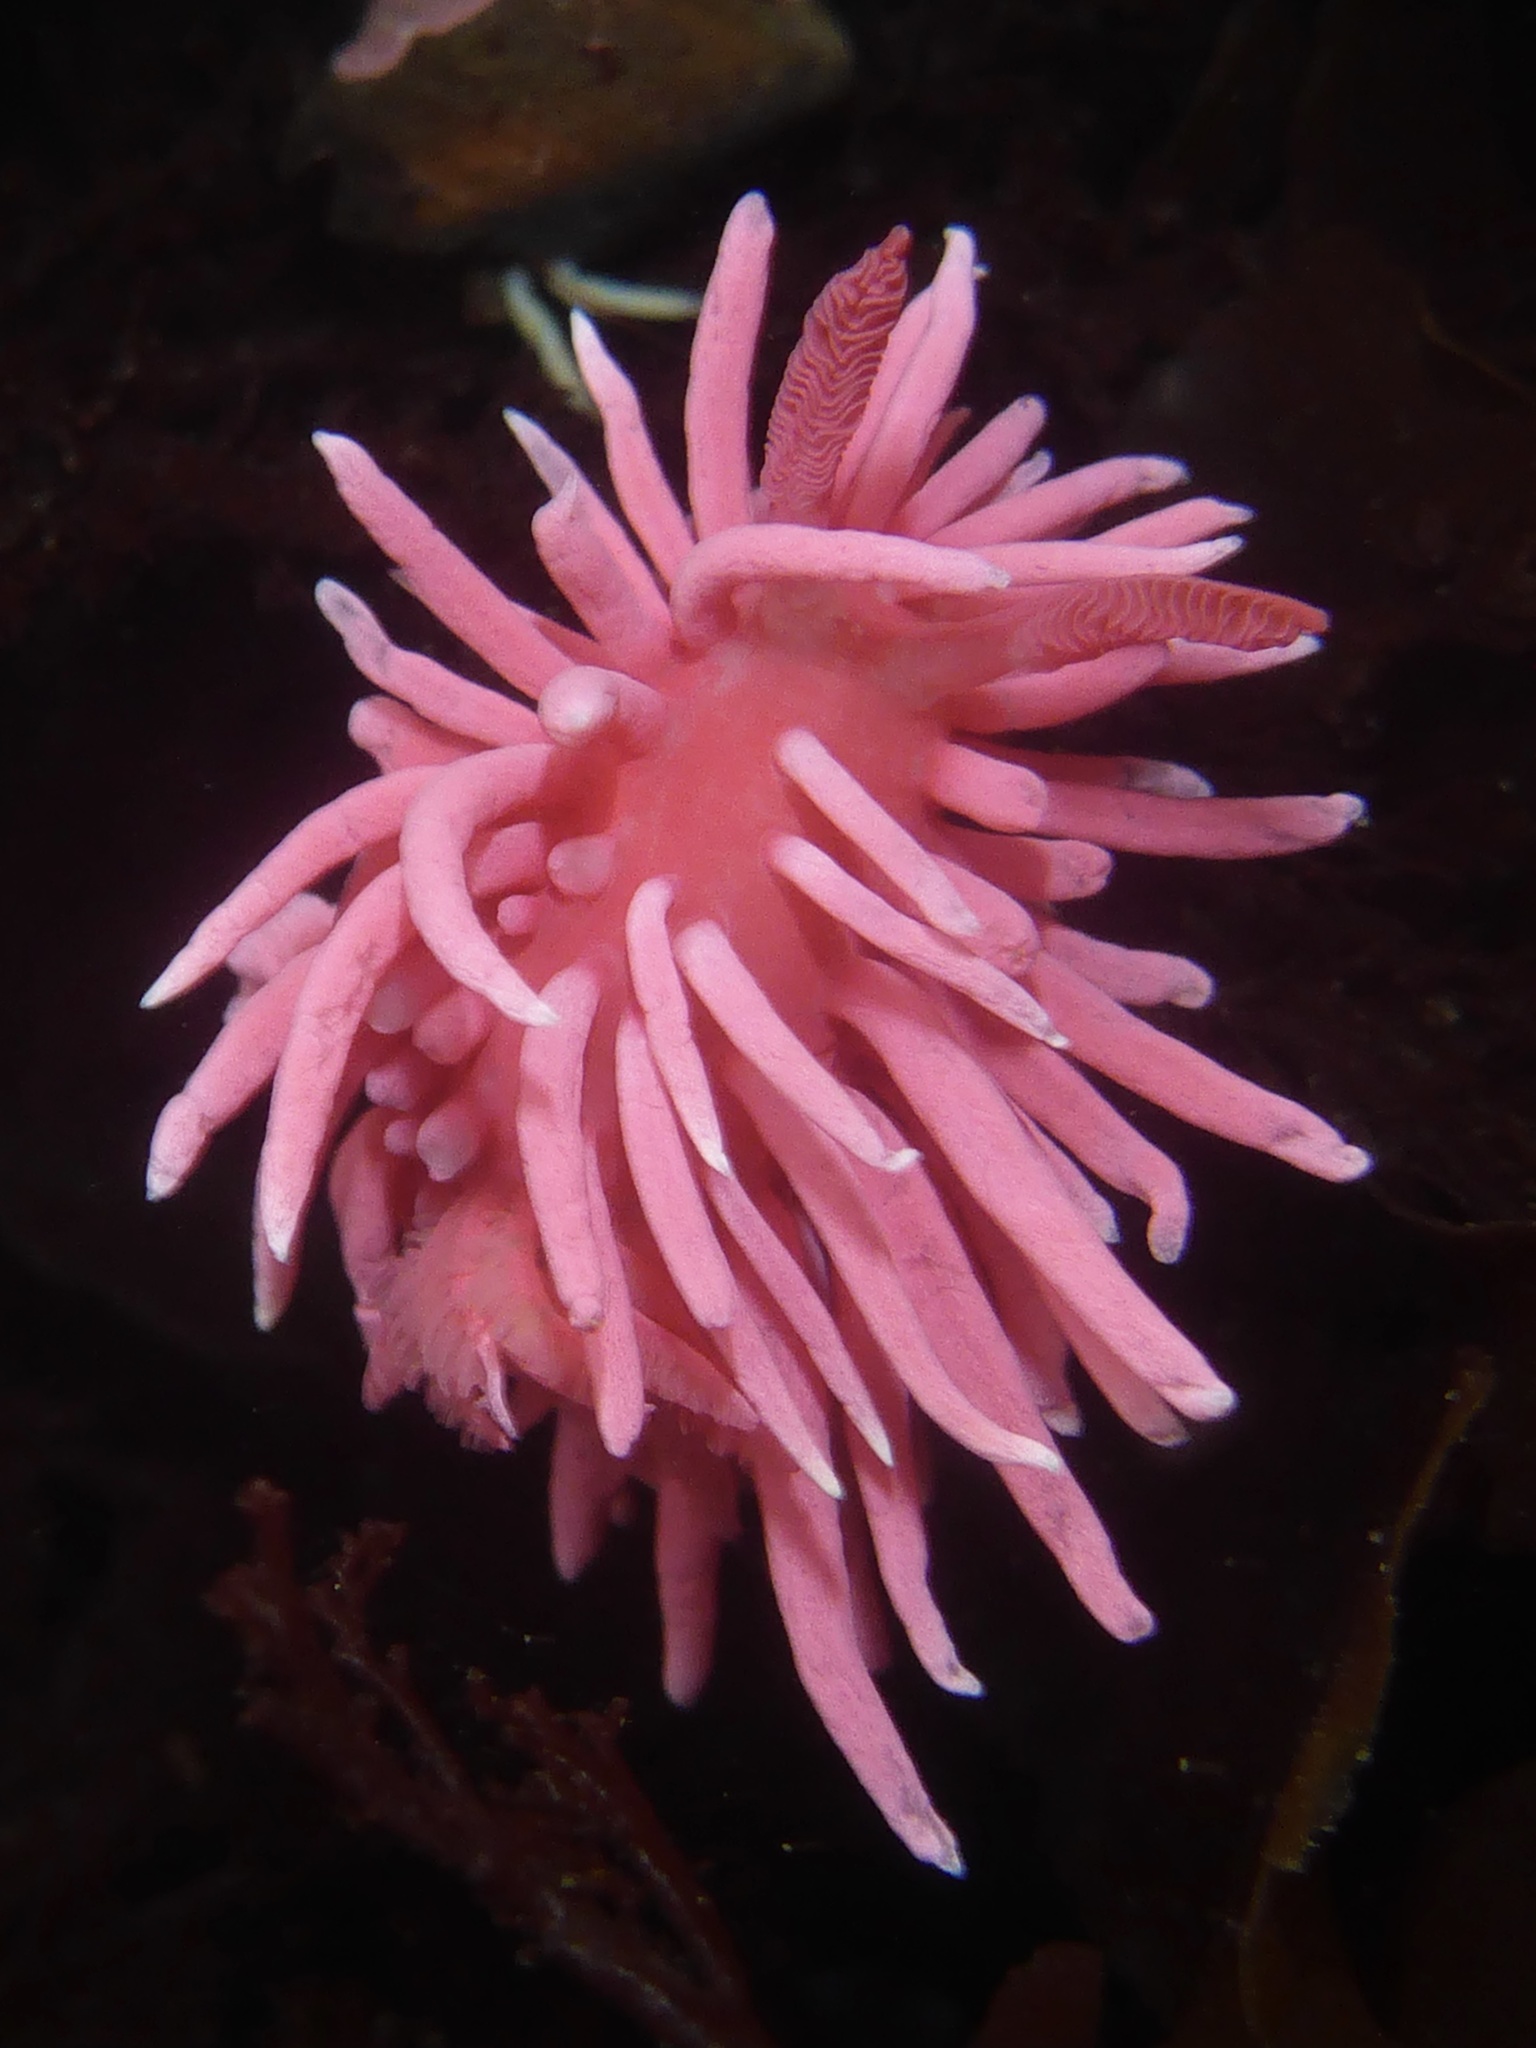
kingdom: Animalia
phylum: Mollusca
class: Gastropoda
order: Nudibranchia
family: Goniodorididae
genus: Okenia
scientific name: Okenia
